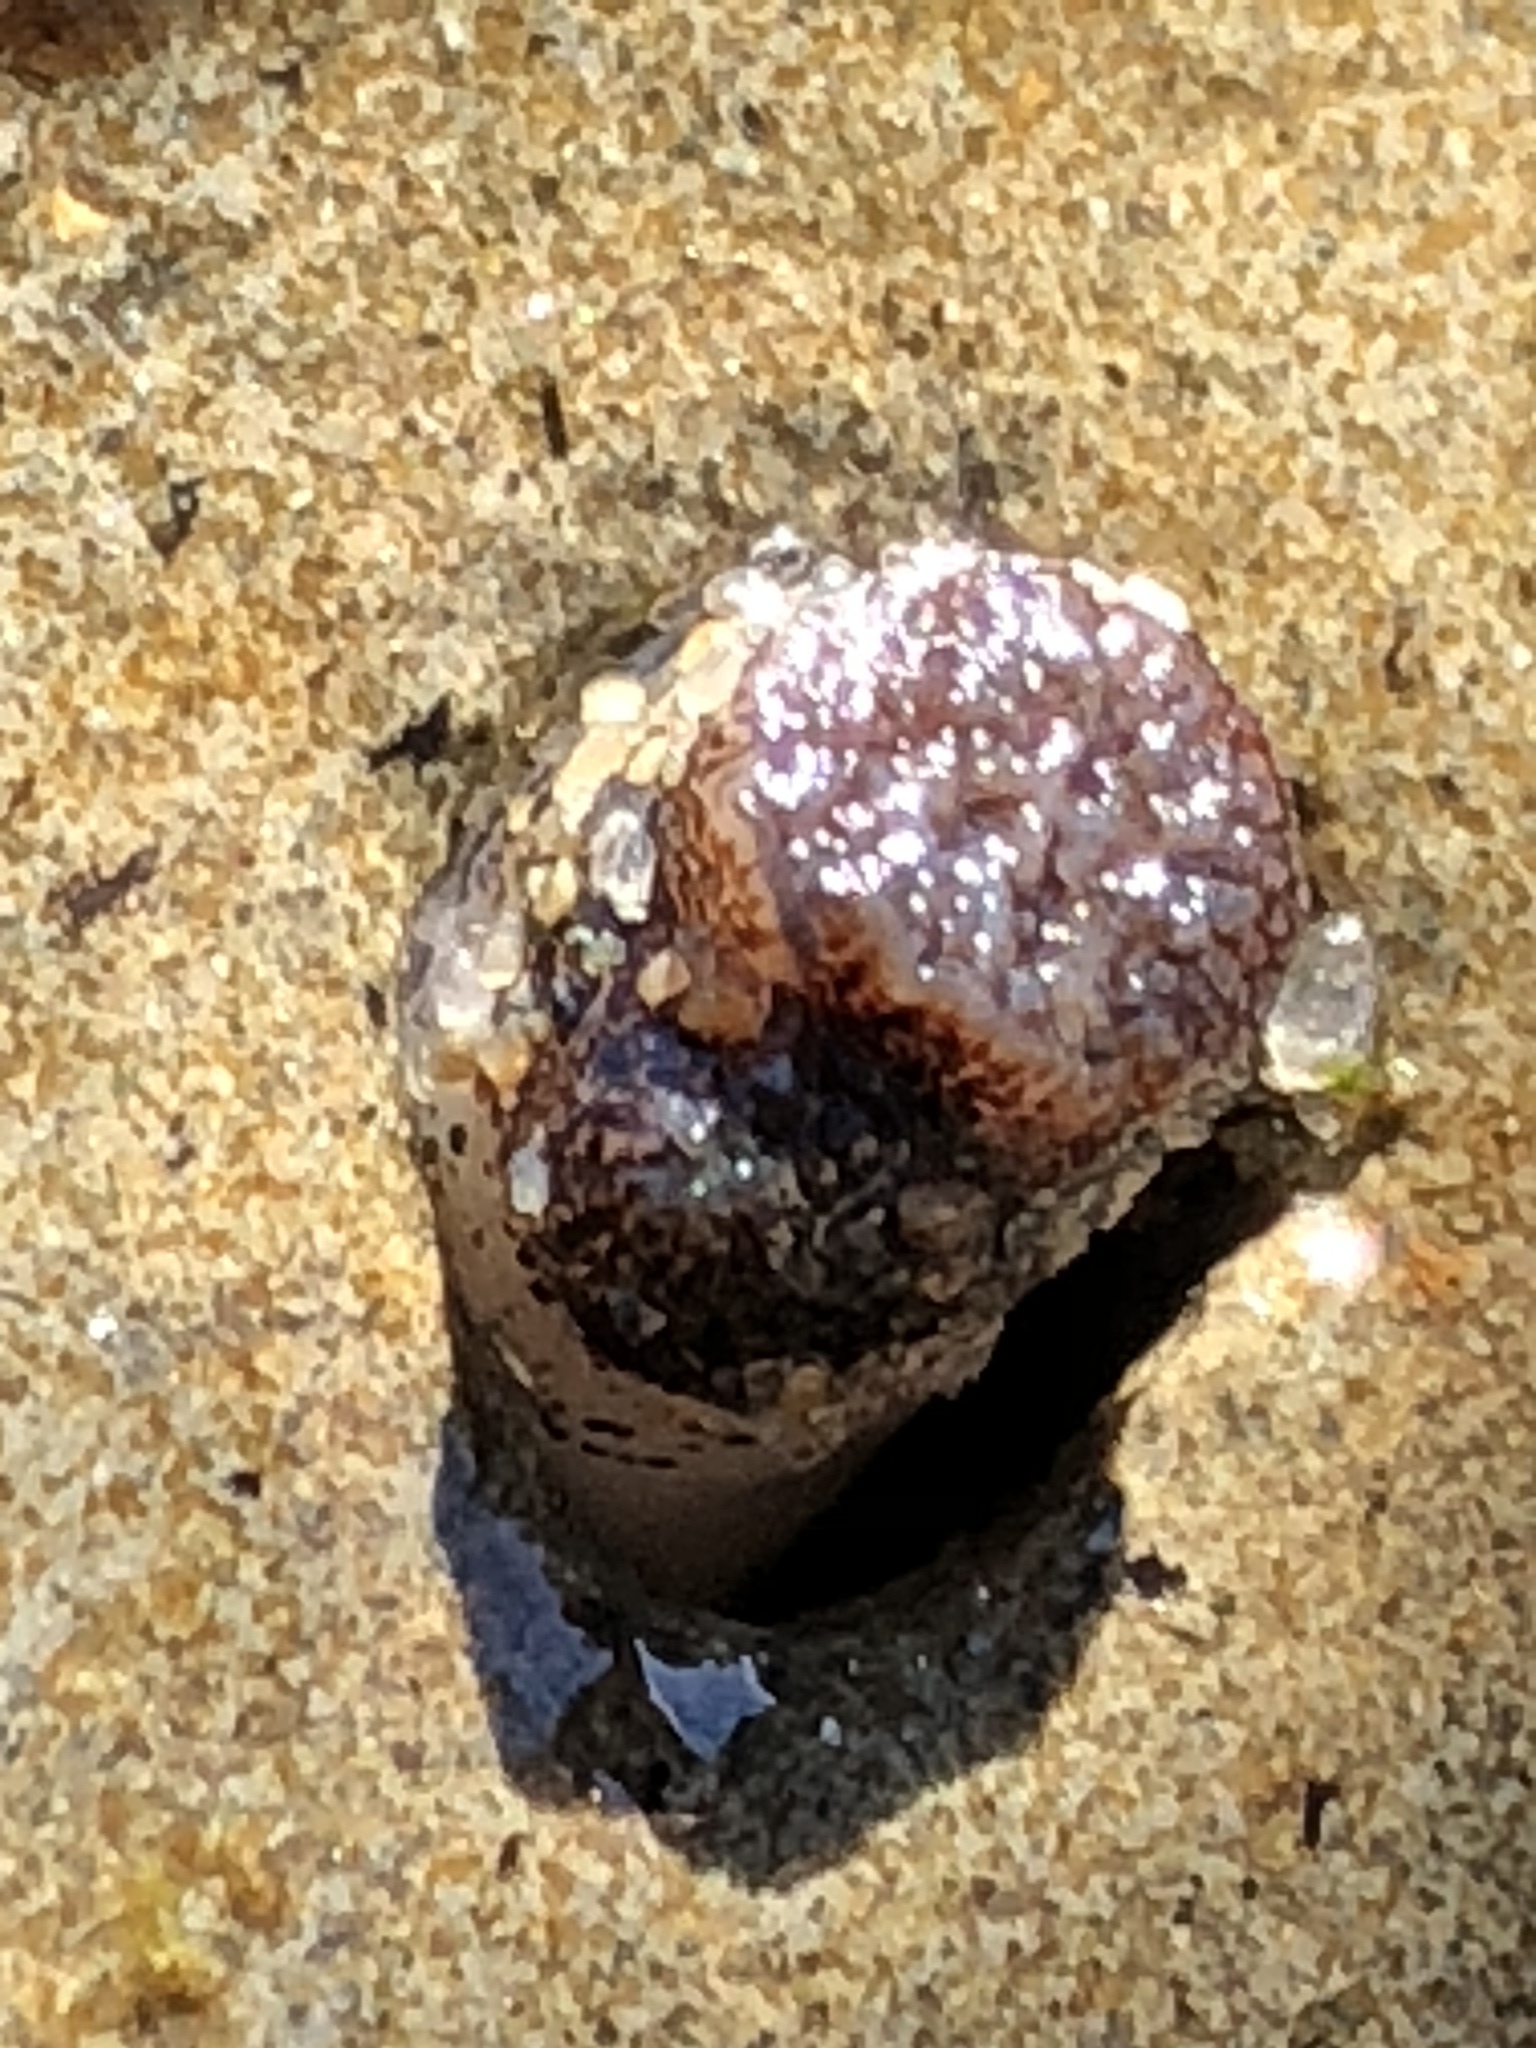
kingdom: Animalia
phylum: Mollusca
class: Bivalvia
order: Myida
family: Pholadidae
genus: Parapholas
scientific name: Parapholas californica
